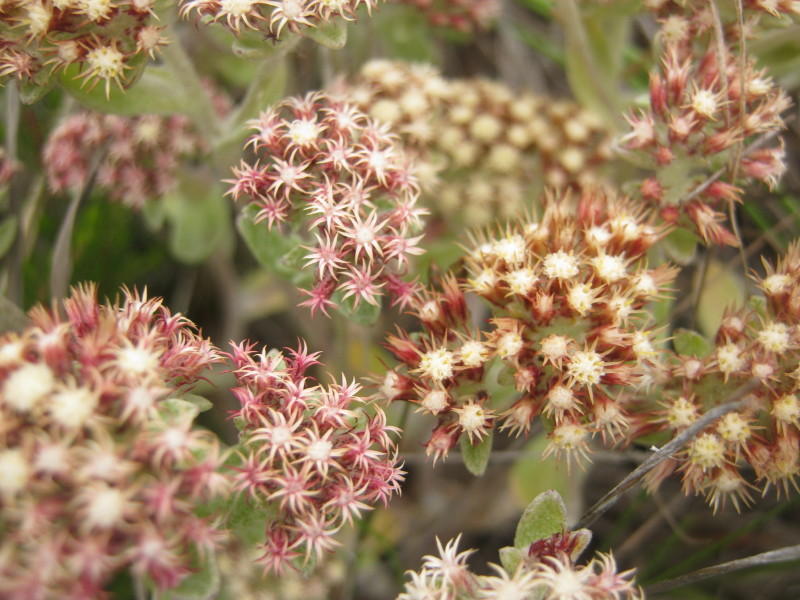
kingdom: Plantae
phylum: Tracheophyta
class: Magnoliopsida
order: Asterales
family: Asteraceae
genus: Helichrysum
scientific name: Helichrysum spiralepis
